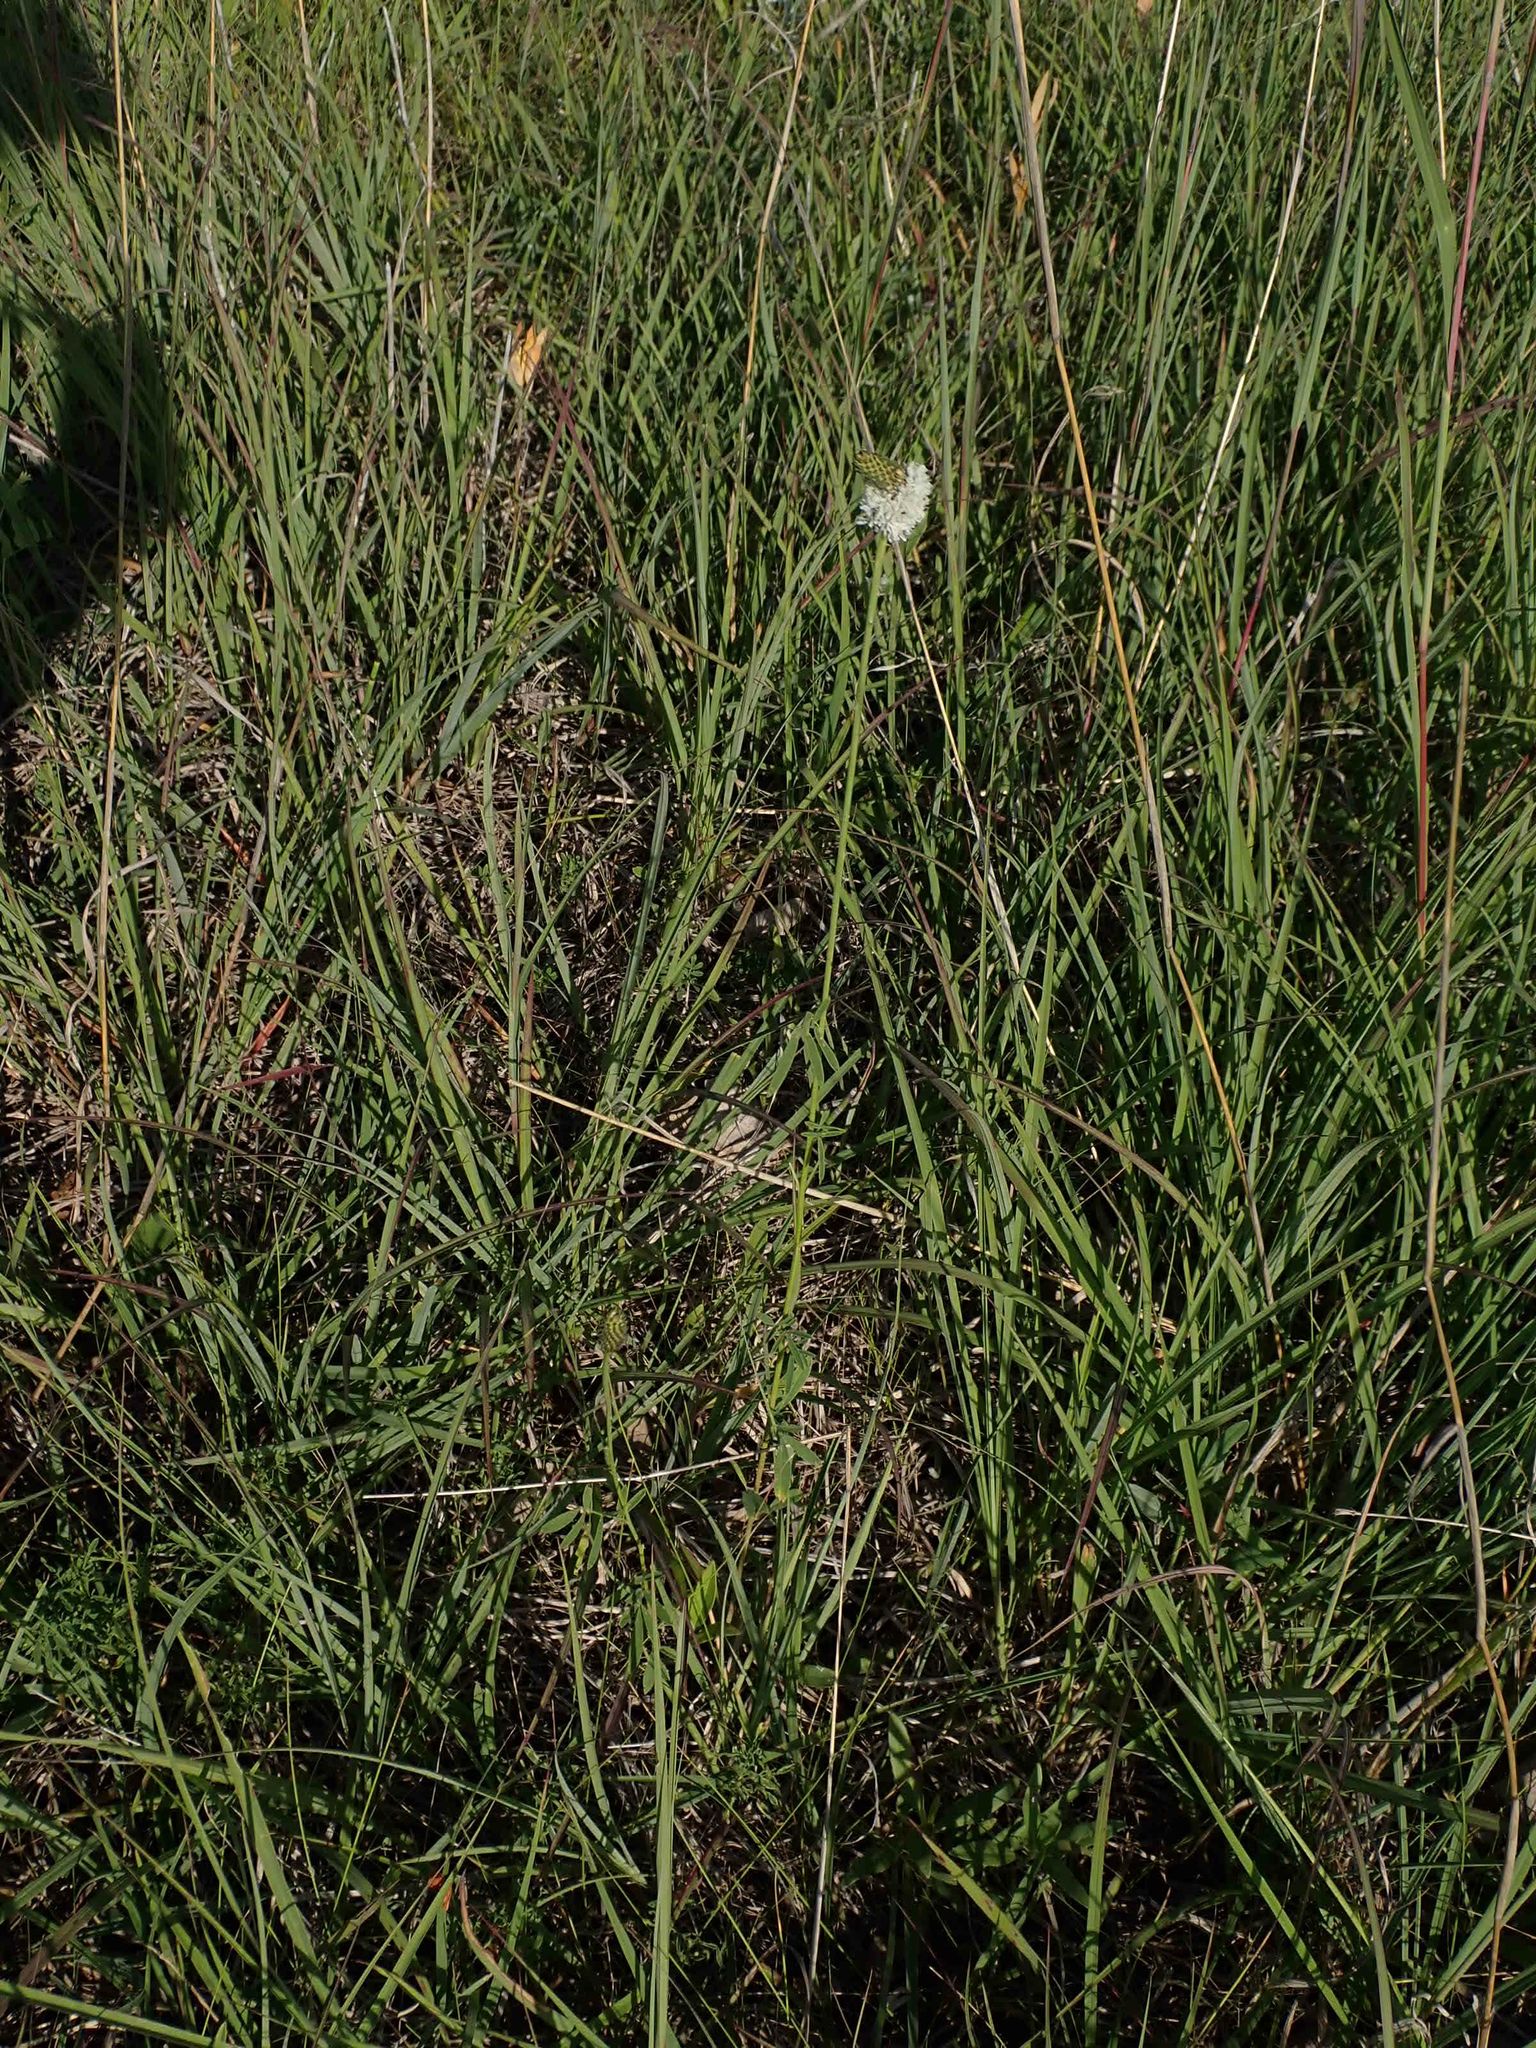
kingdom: Plantae
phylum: Tracheophyta
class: Magnoliopsida
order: Fabales
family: Fabaceae
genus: Dalea
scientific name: Dalea candida
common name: White prairie-clover
